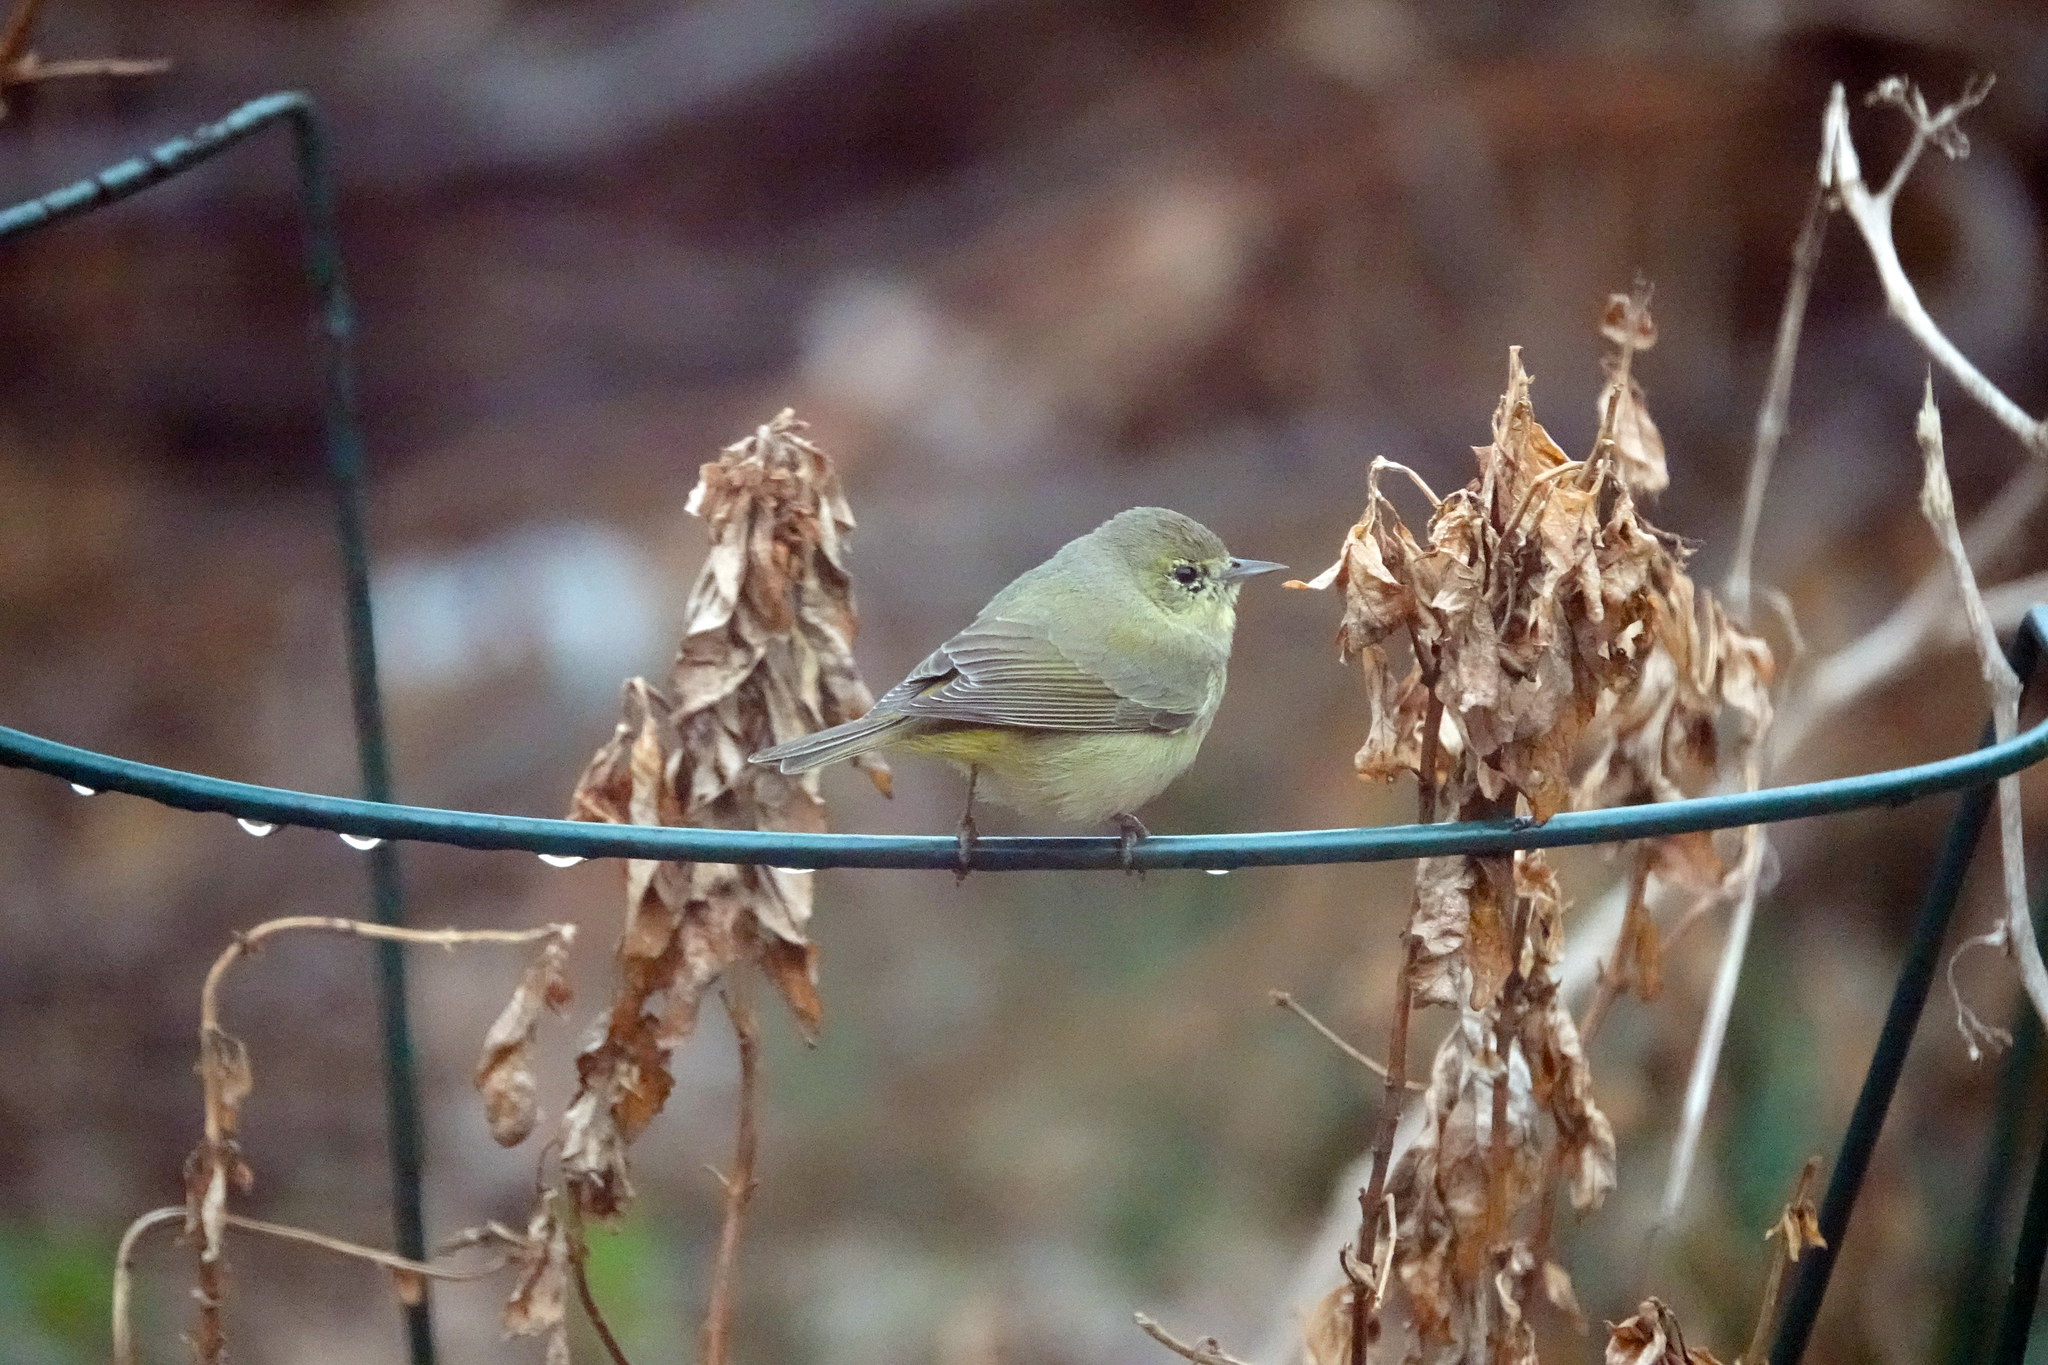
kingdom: Animalia
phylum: Chordata
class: Aves
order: Passeriformes
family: Parulidae
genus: Leiothlypis
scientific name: Leiothlypis celata
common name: Orange-crowned warbler
